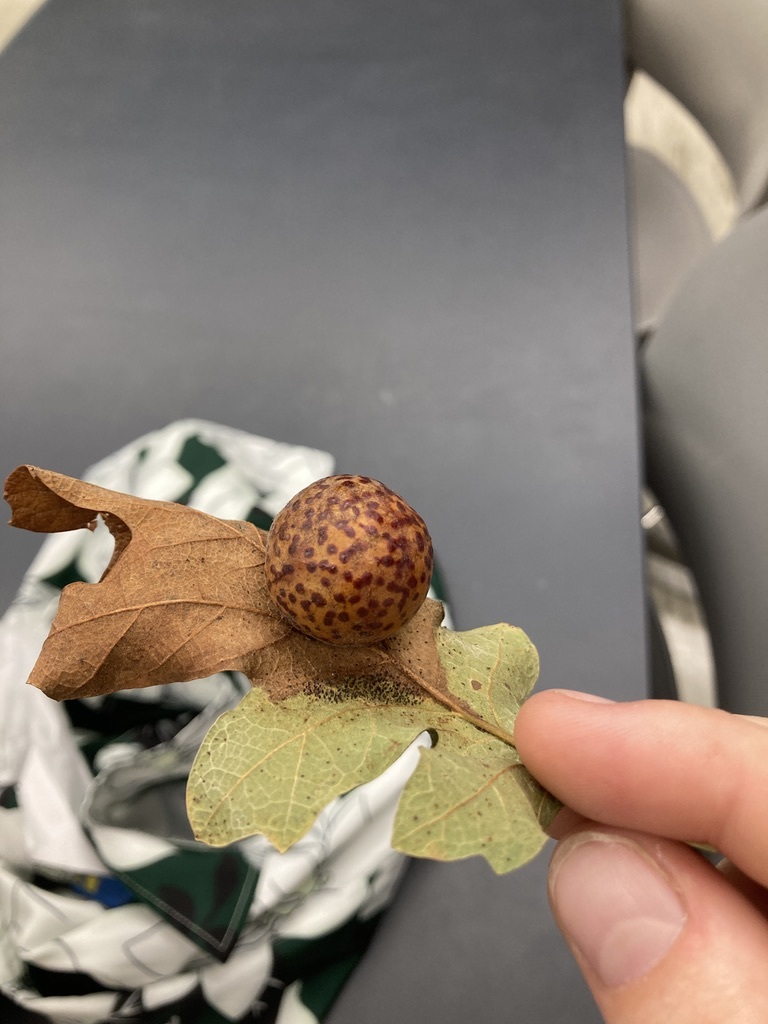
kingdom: Animalia
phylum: Arthropoda
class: Insecta
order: Hymenoptera
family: Cynipidae
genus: Cynips
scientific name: Cynips
